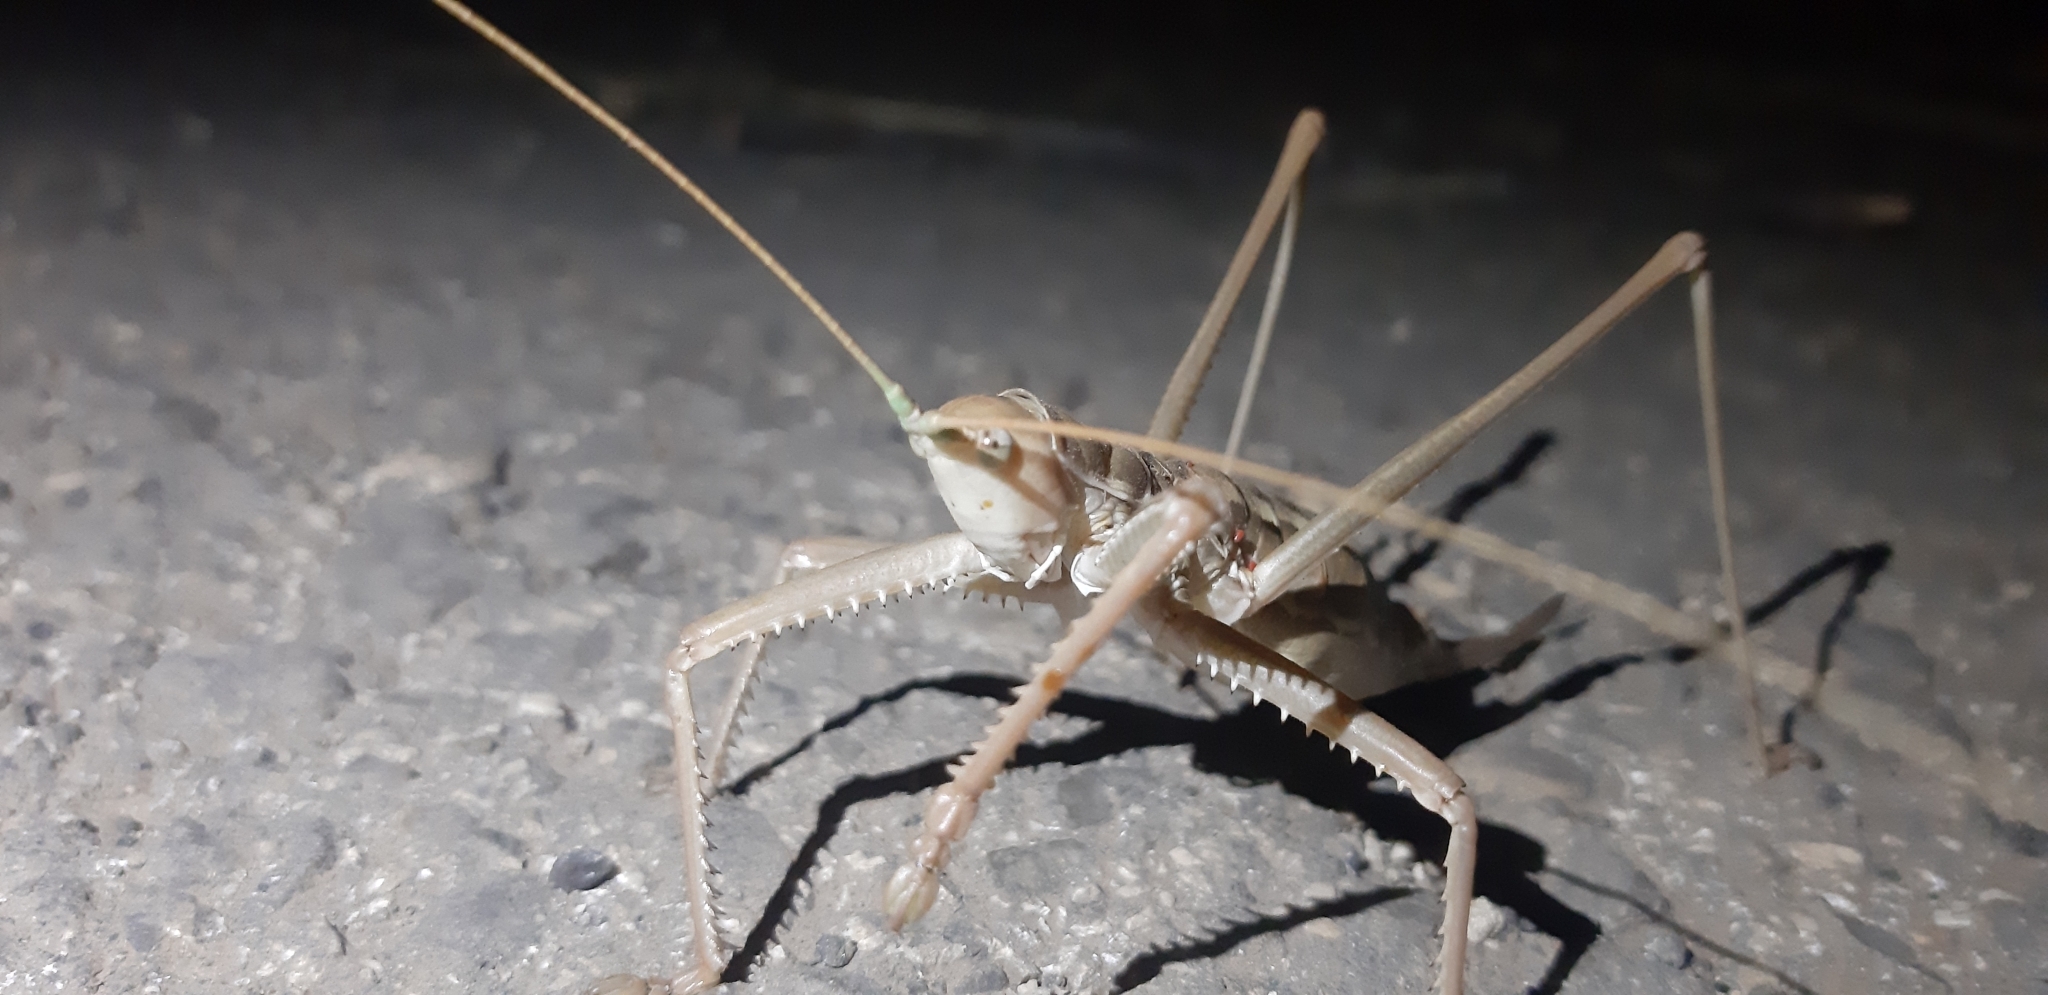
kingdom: Animalia
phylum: Arthropoda
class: Insecta
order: Orthoptera
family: Tettigoniidae
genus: Saga
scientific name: Saga pedo
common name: Common predatory bush-cricket
